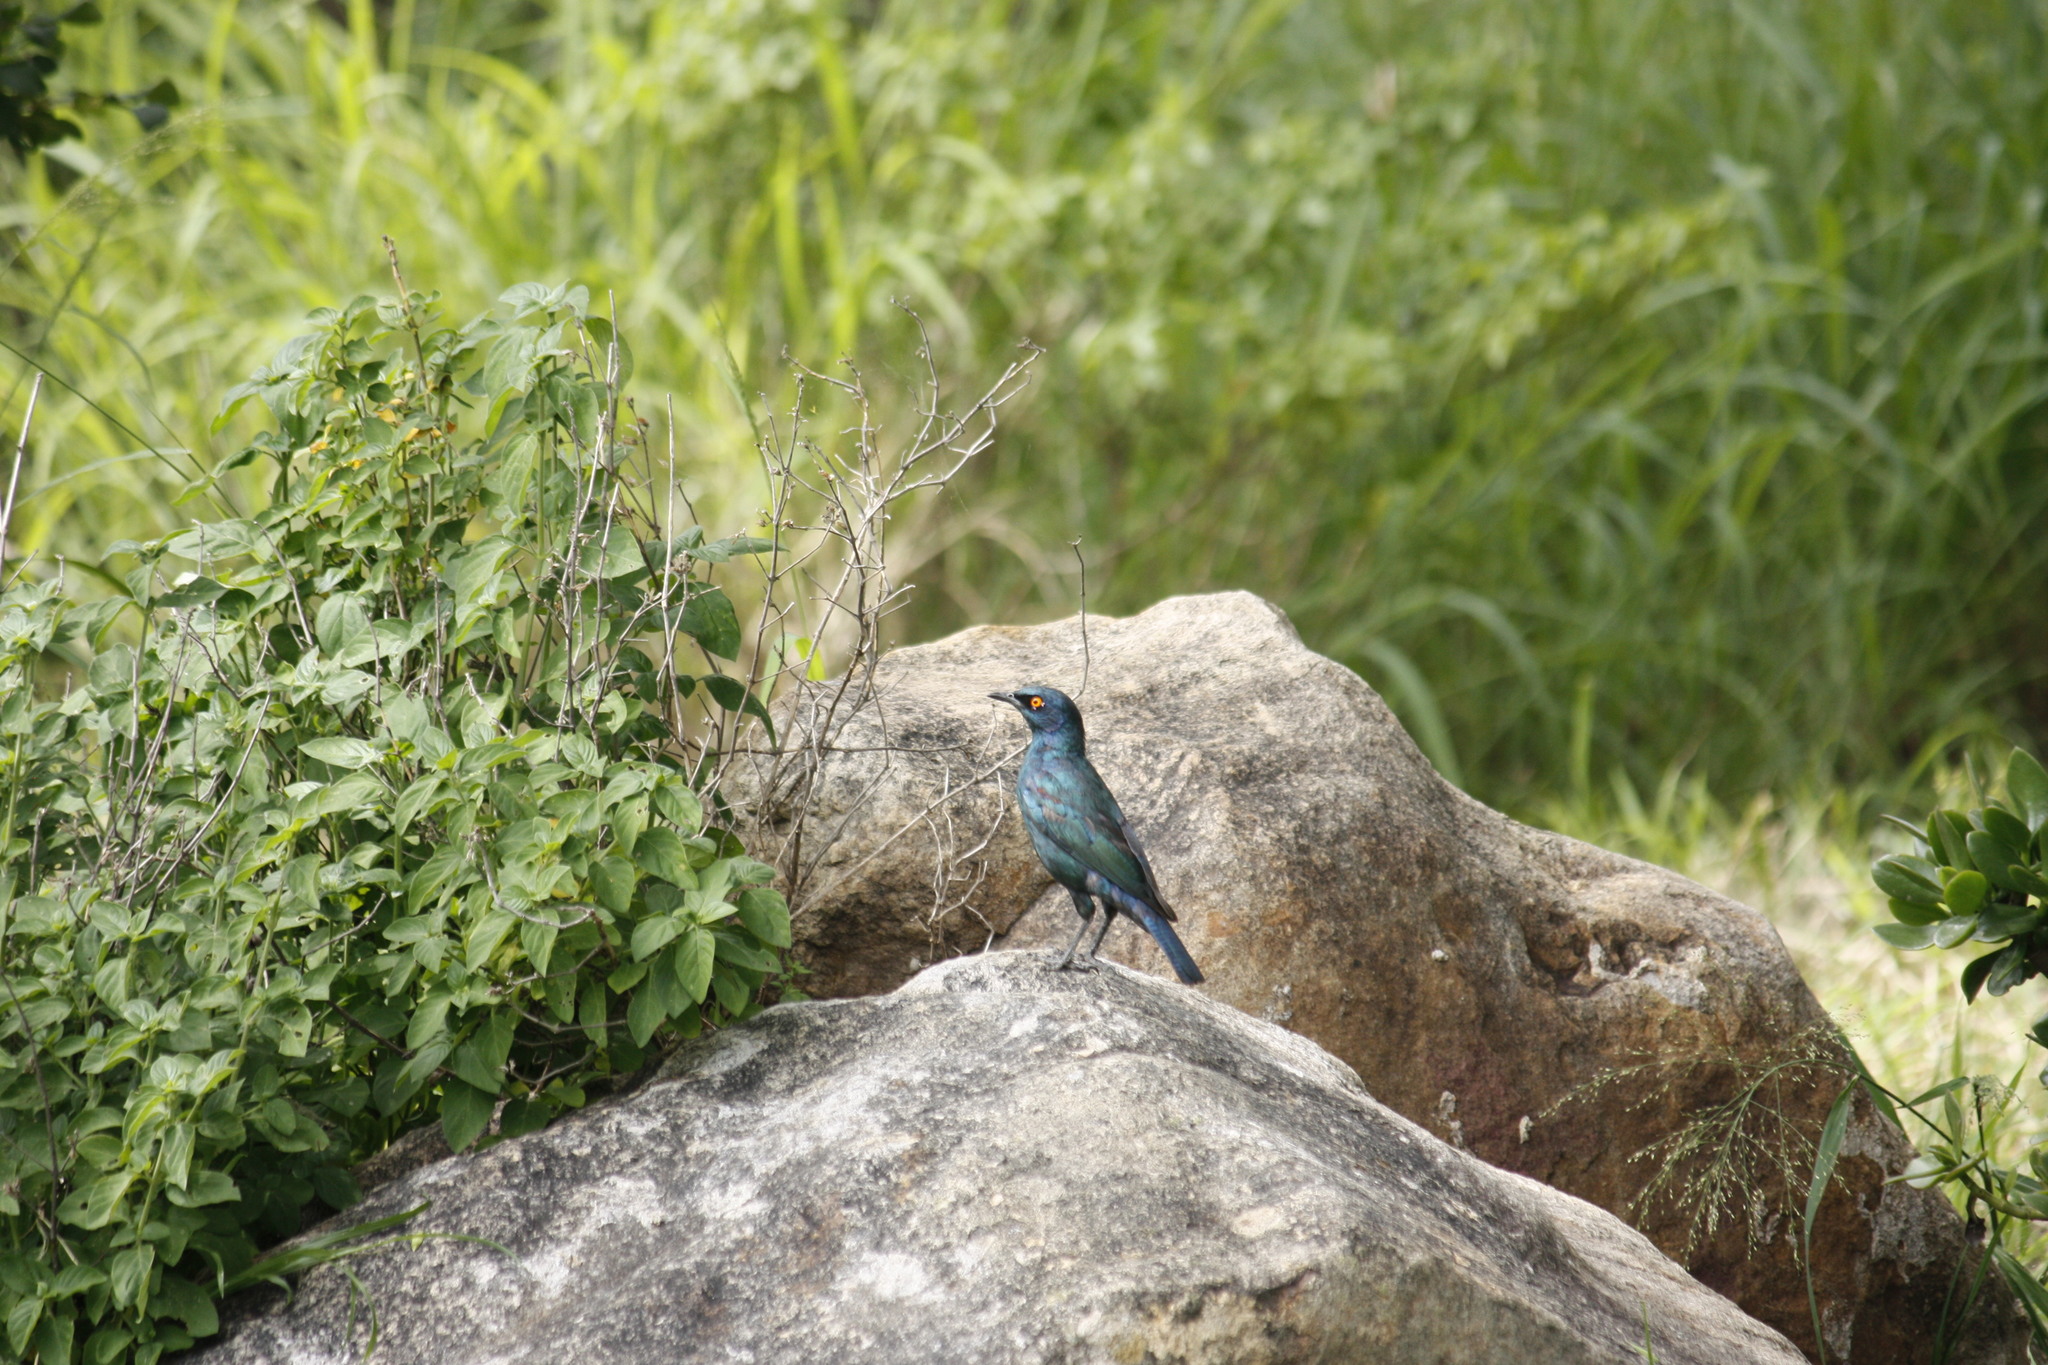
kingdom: Animalia
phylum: Chordata
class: Aves
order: Passeriformes
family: Sturnidae
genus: Lamprotornis
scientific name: Lamprotornis nitens
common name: Cape starling
